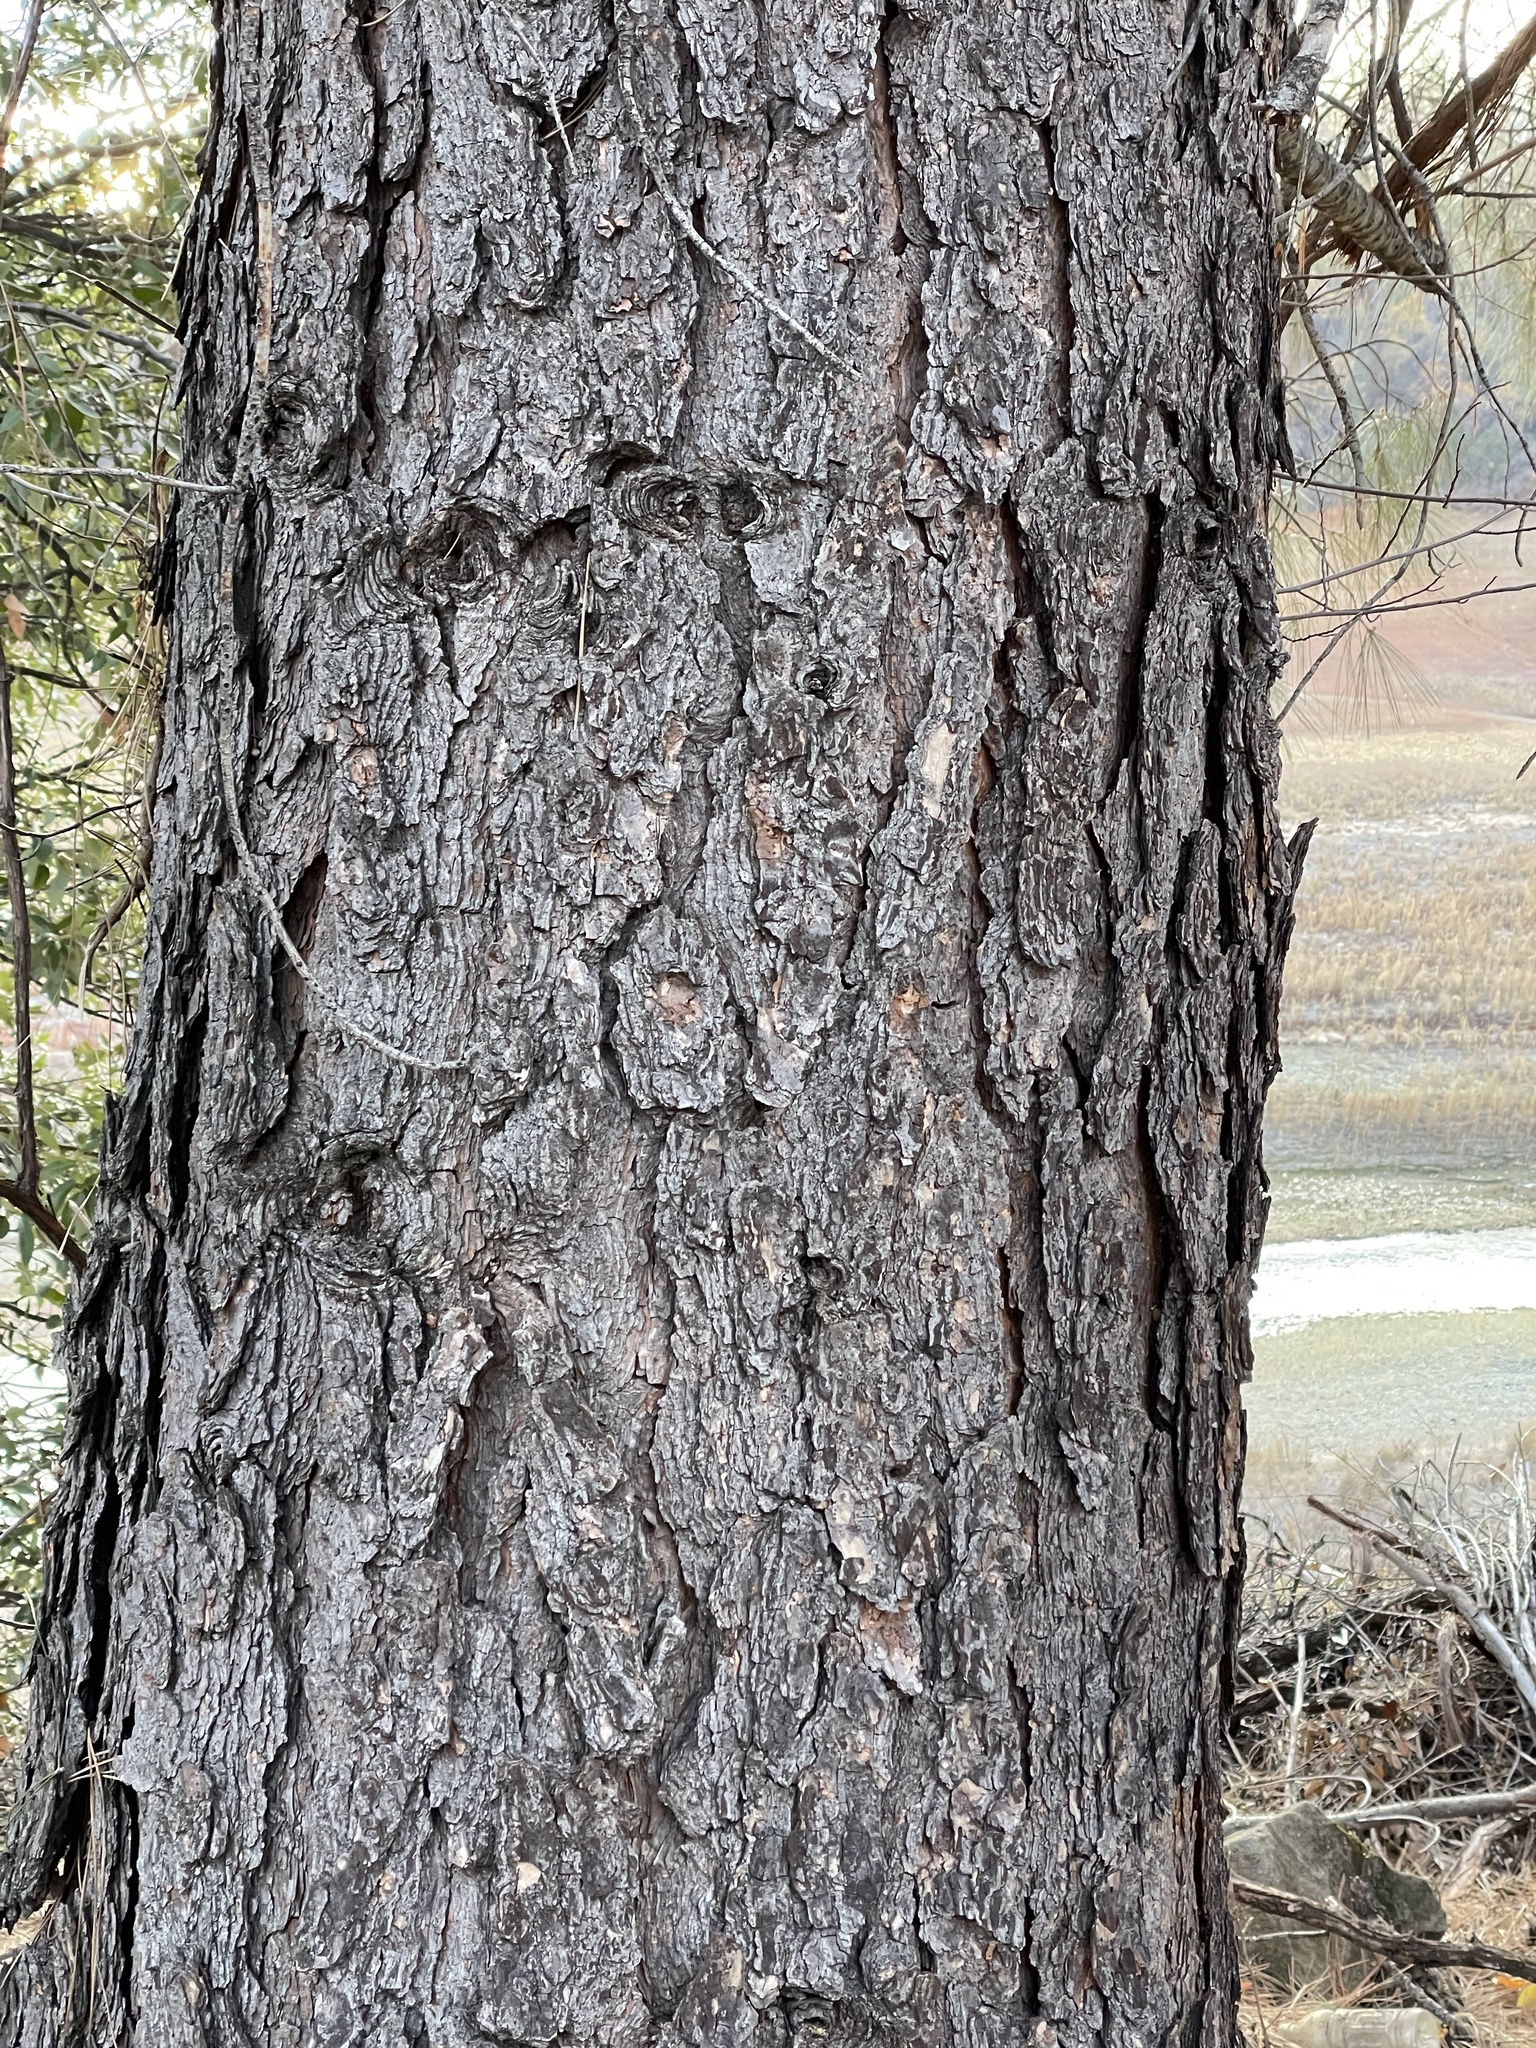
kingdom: Plantae
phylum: Tracheophyta
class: Pinopsida
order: Pinales
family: Pinaceae
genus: Pinus
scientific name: Pinus sabiniana
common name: Bull pine
